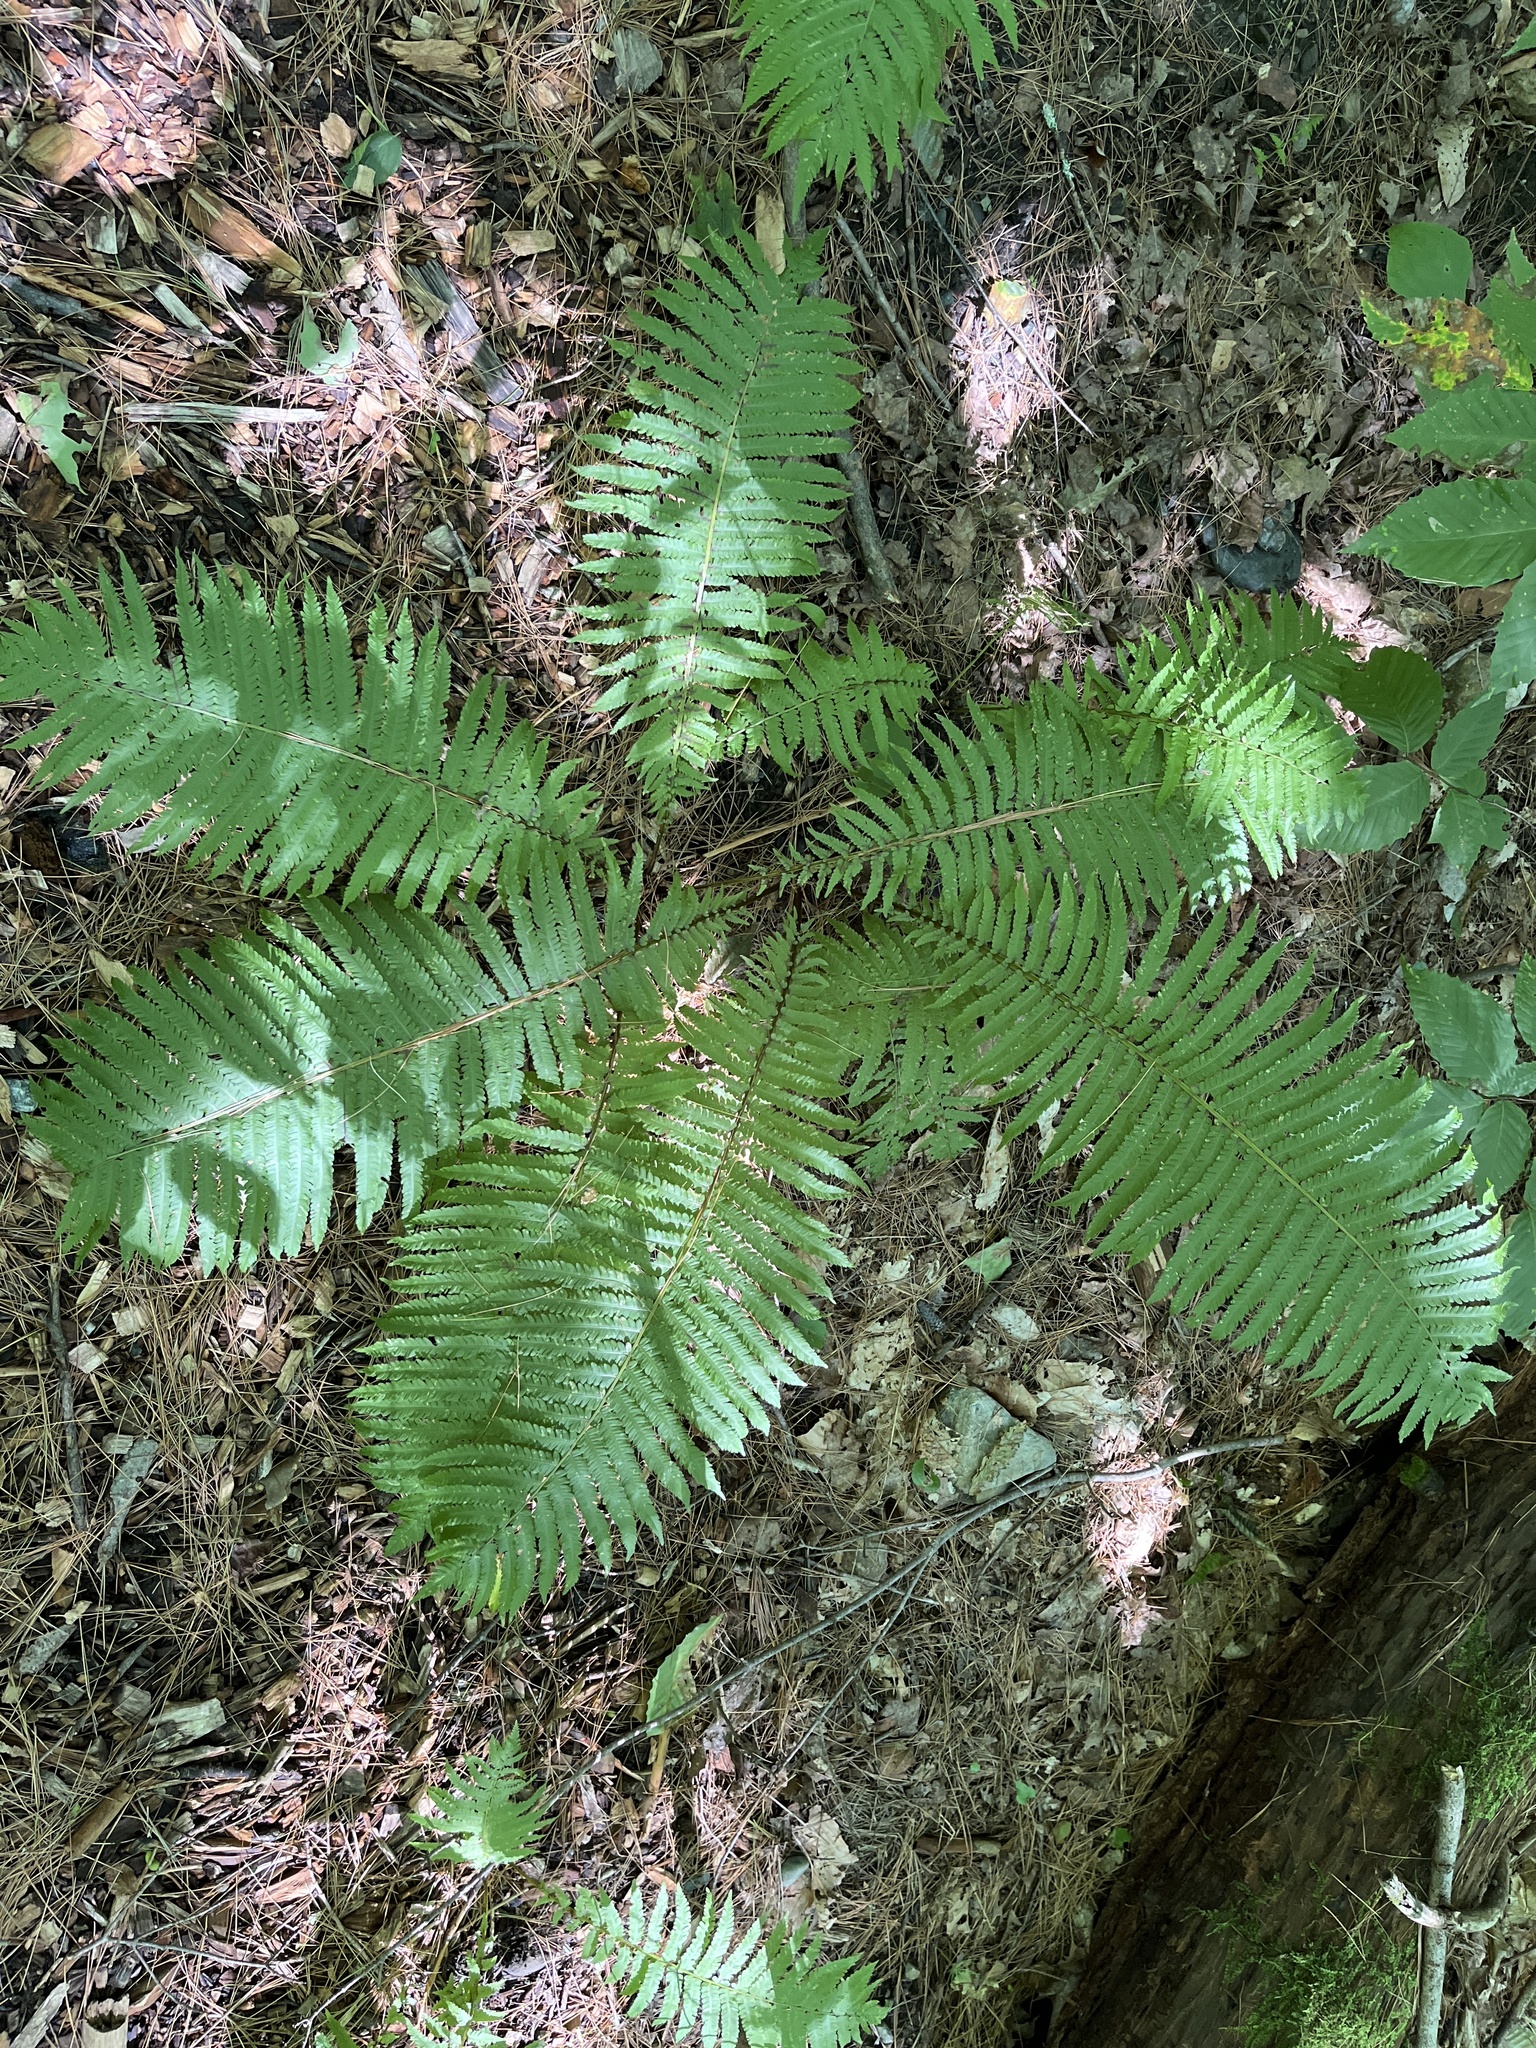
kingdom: Plantae
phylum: Tracheophyta
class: Polypodiopsida
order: Polypodiales
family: Onocleaceae
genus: Matteuccia
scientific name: Matteuccia struthiopteris
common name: Ostrich fern
